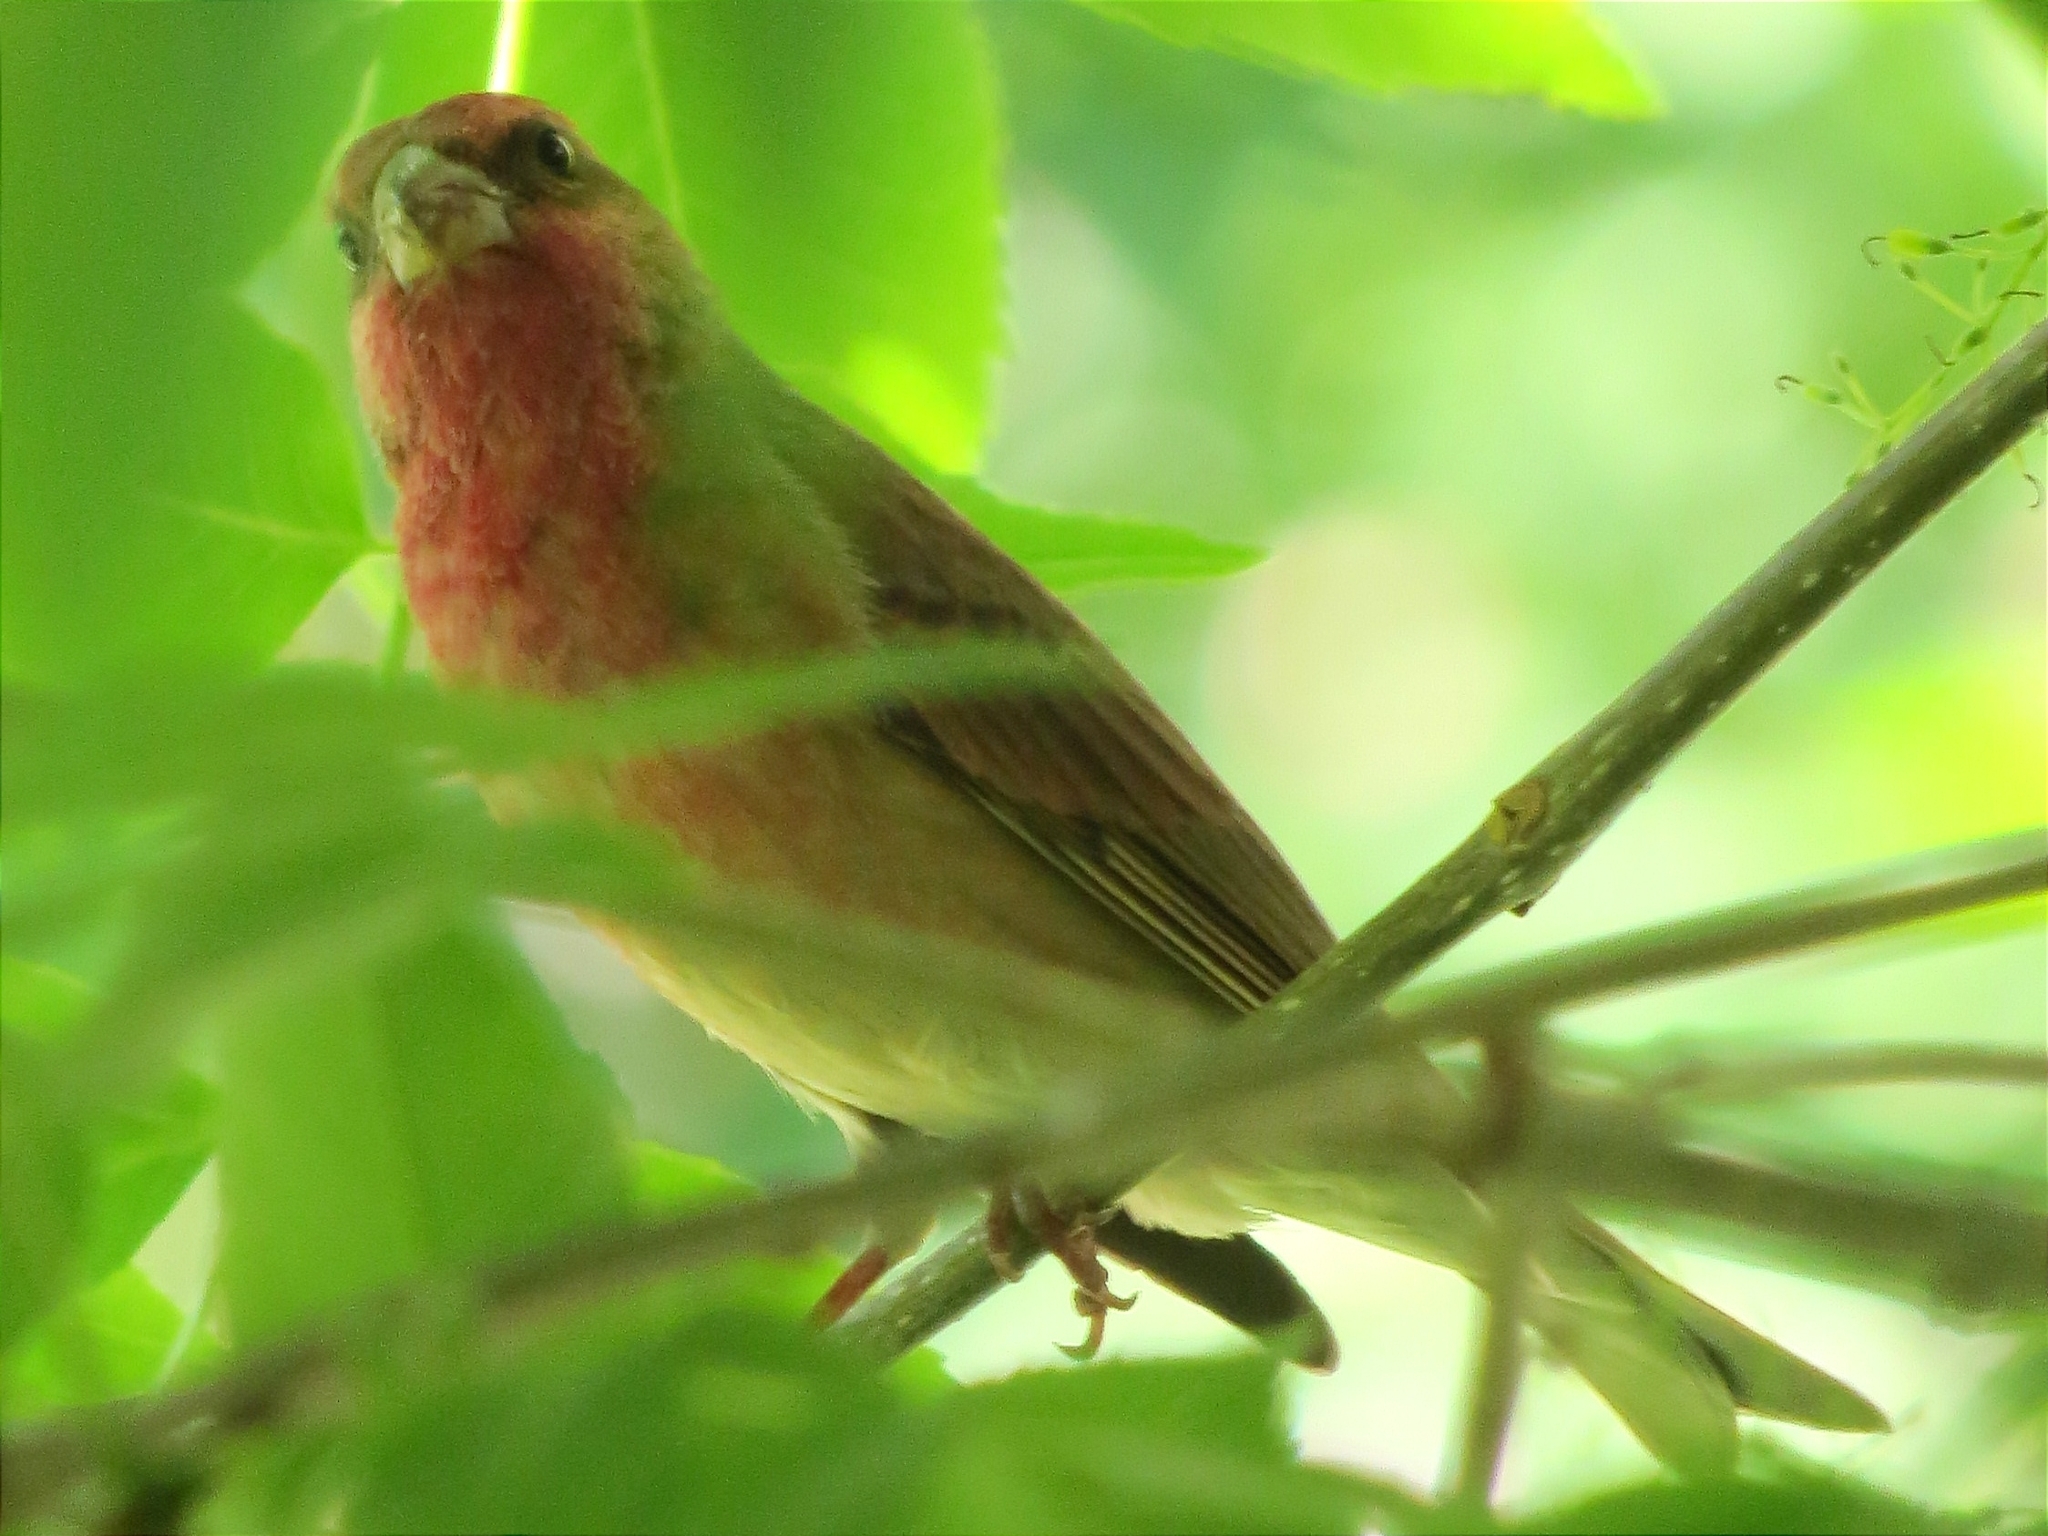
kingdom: Animalia
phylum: Chordata
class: Aves
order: Passeriformes
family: Fringillidae
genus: Carpodacus
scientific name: Carpodacus erythrinus
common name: Common rosefinch
